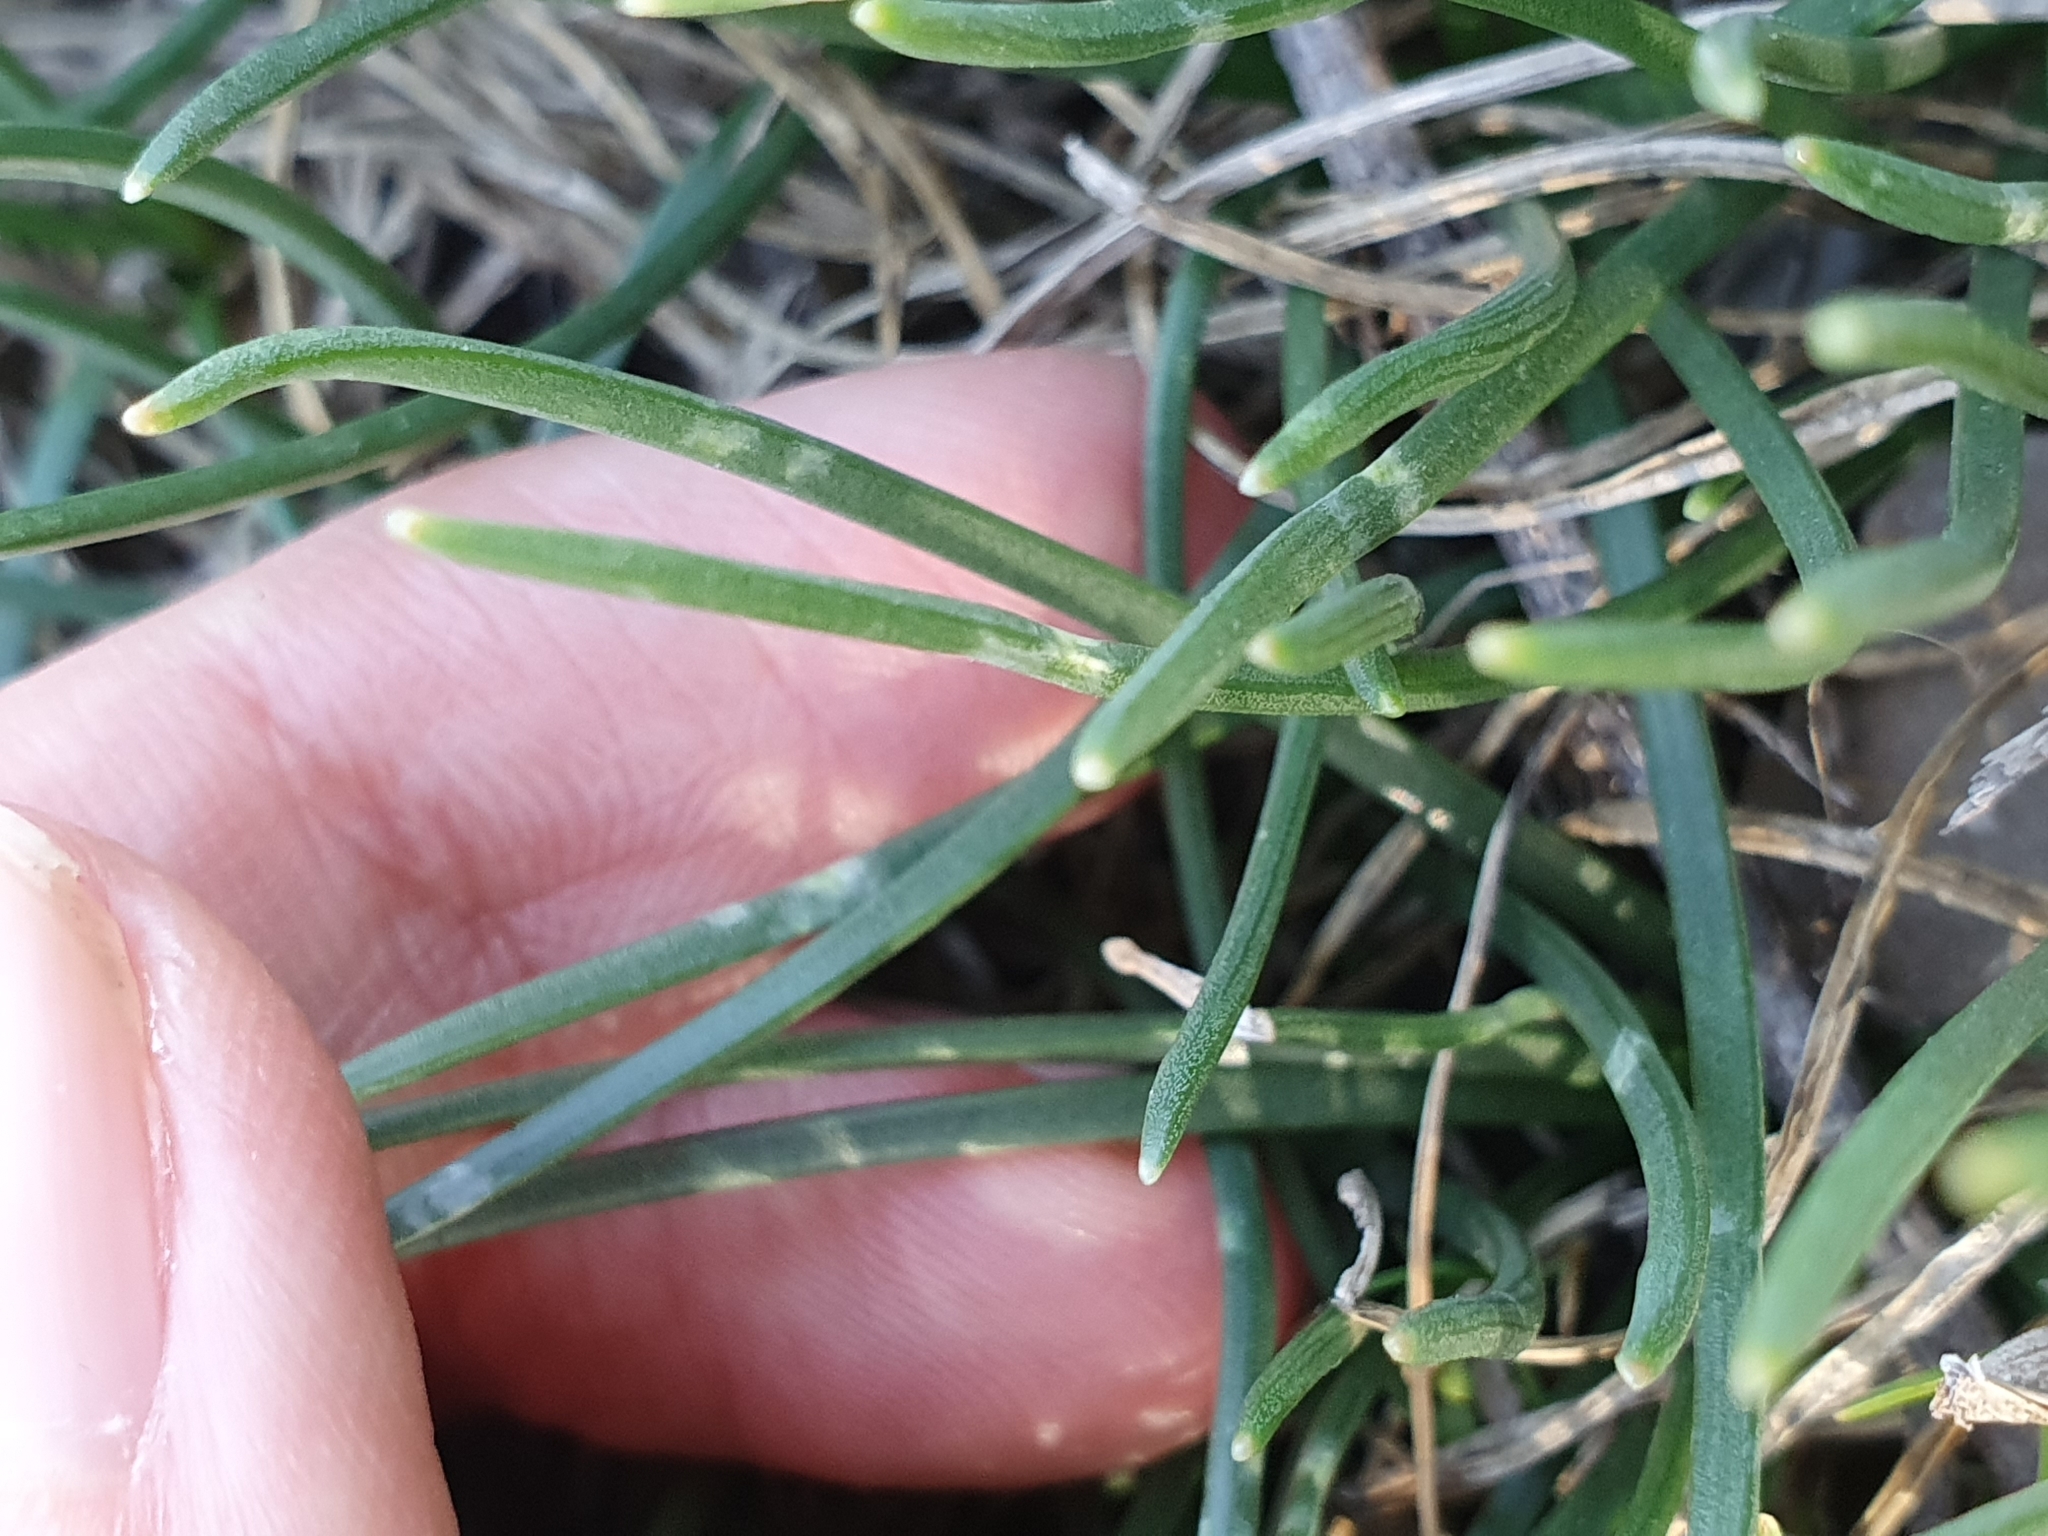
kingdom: Plantae
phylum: Tracheophyta
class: Liliopsida
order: Asparagales
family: Asparagaceae
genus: Drimia
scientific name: Drimia fugax
